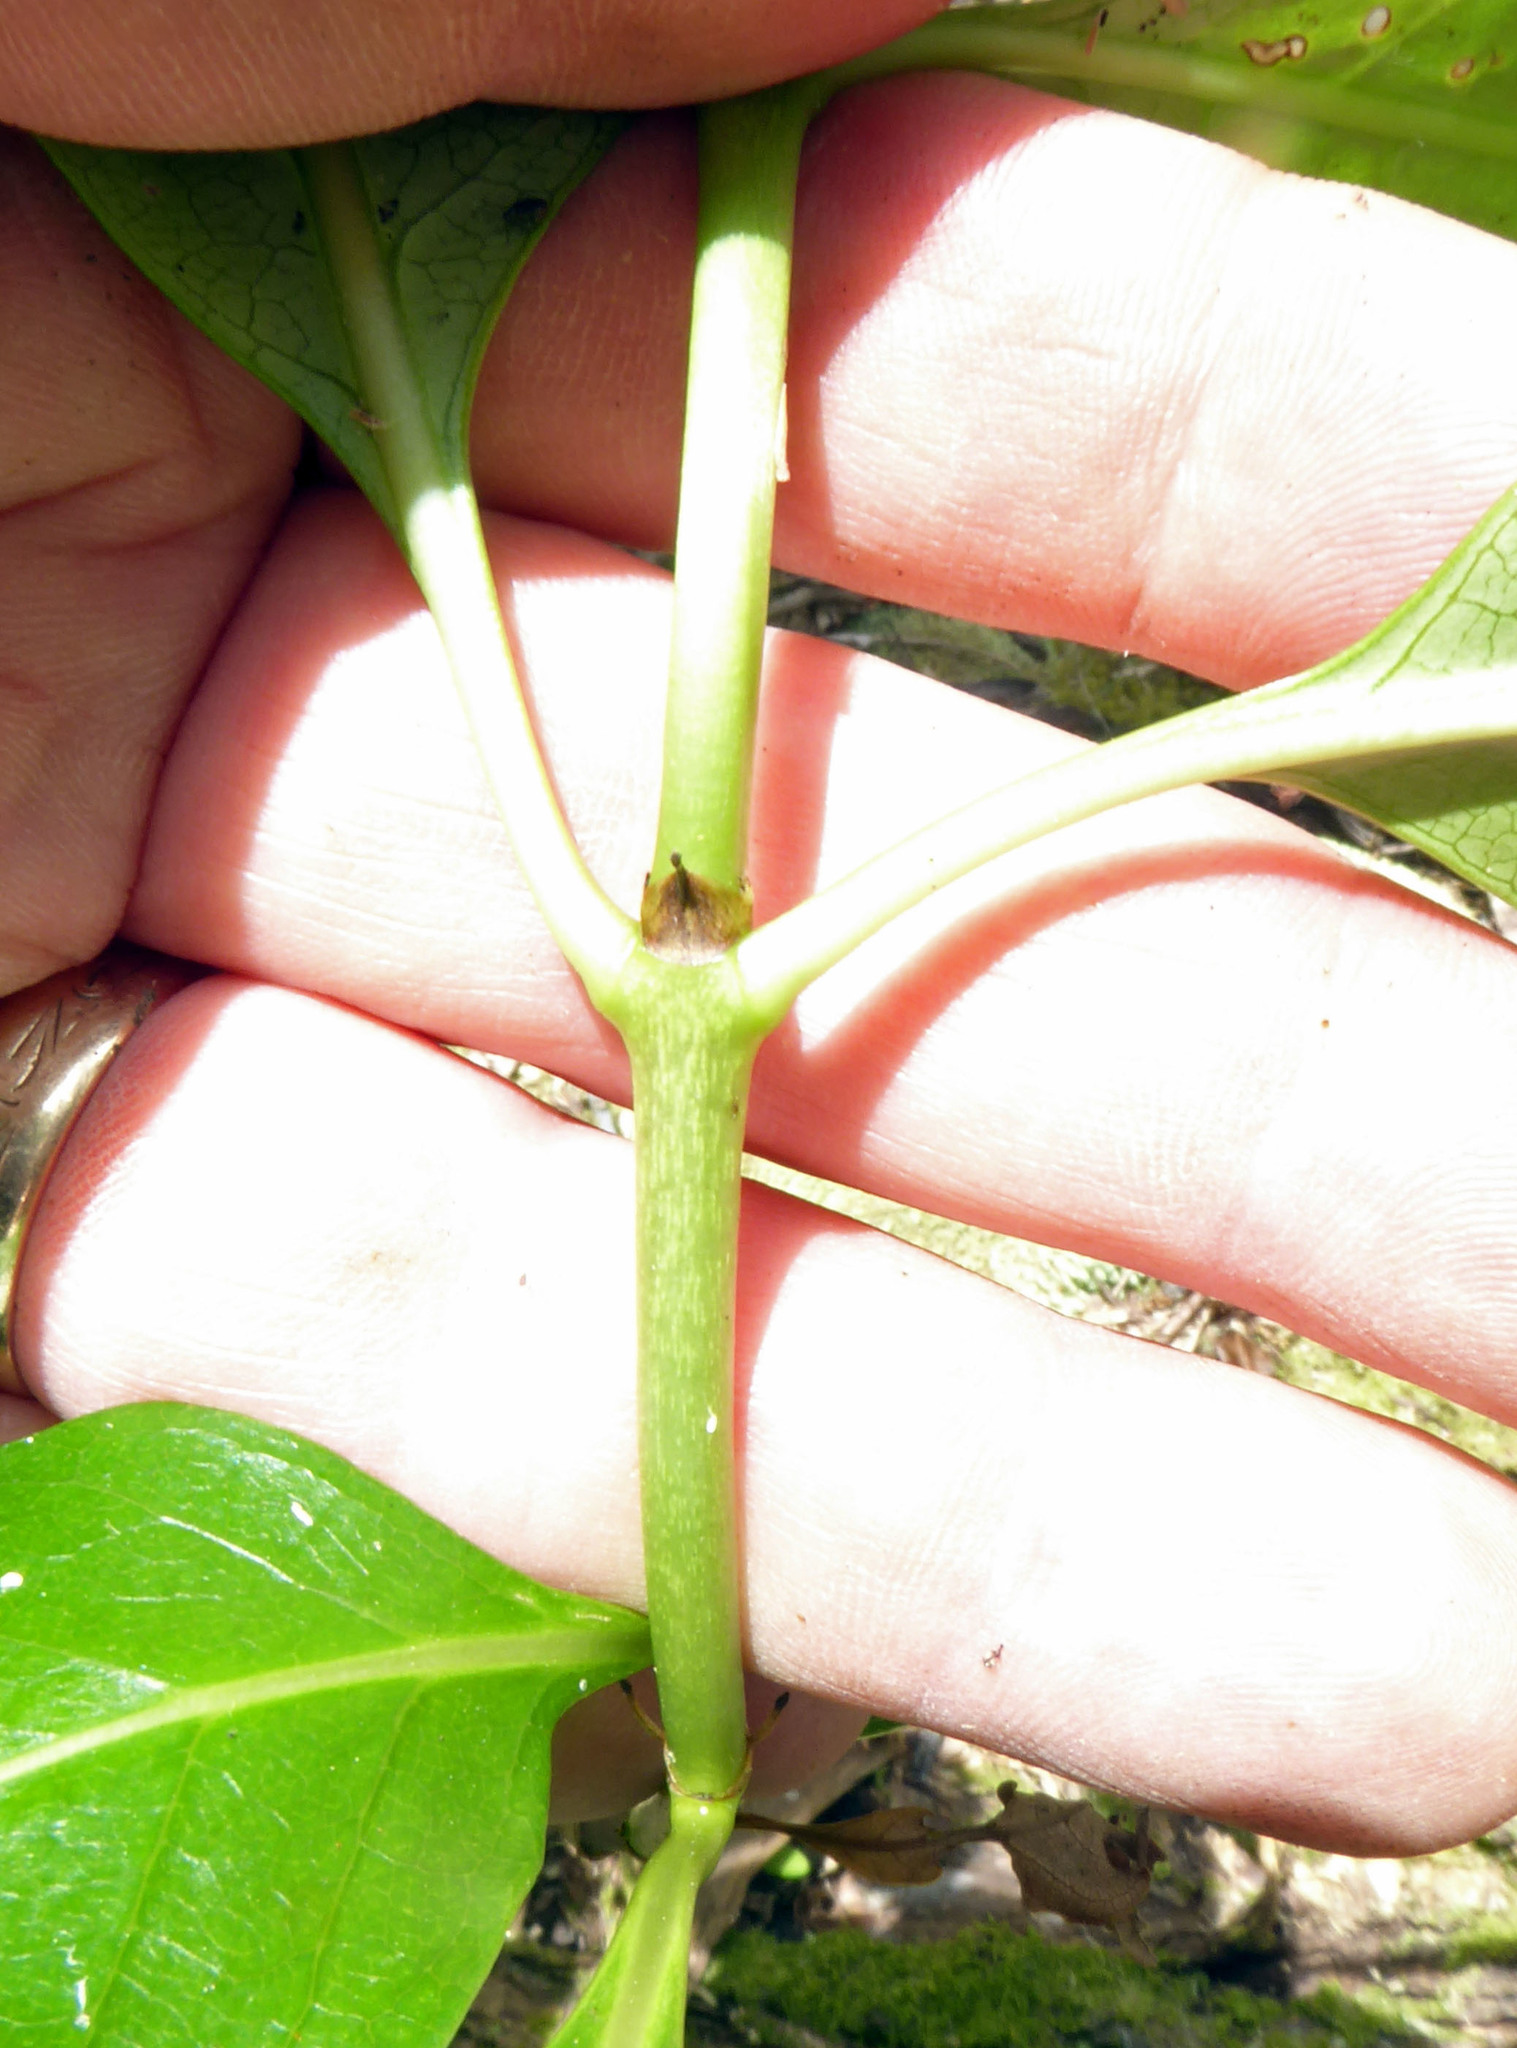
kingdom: Plantae
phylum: Tracheophyta
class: Magnoliopsida
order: Gentianales
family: Rubiaceae
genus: Coprosma
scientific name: Coprosma macrocarpa
